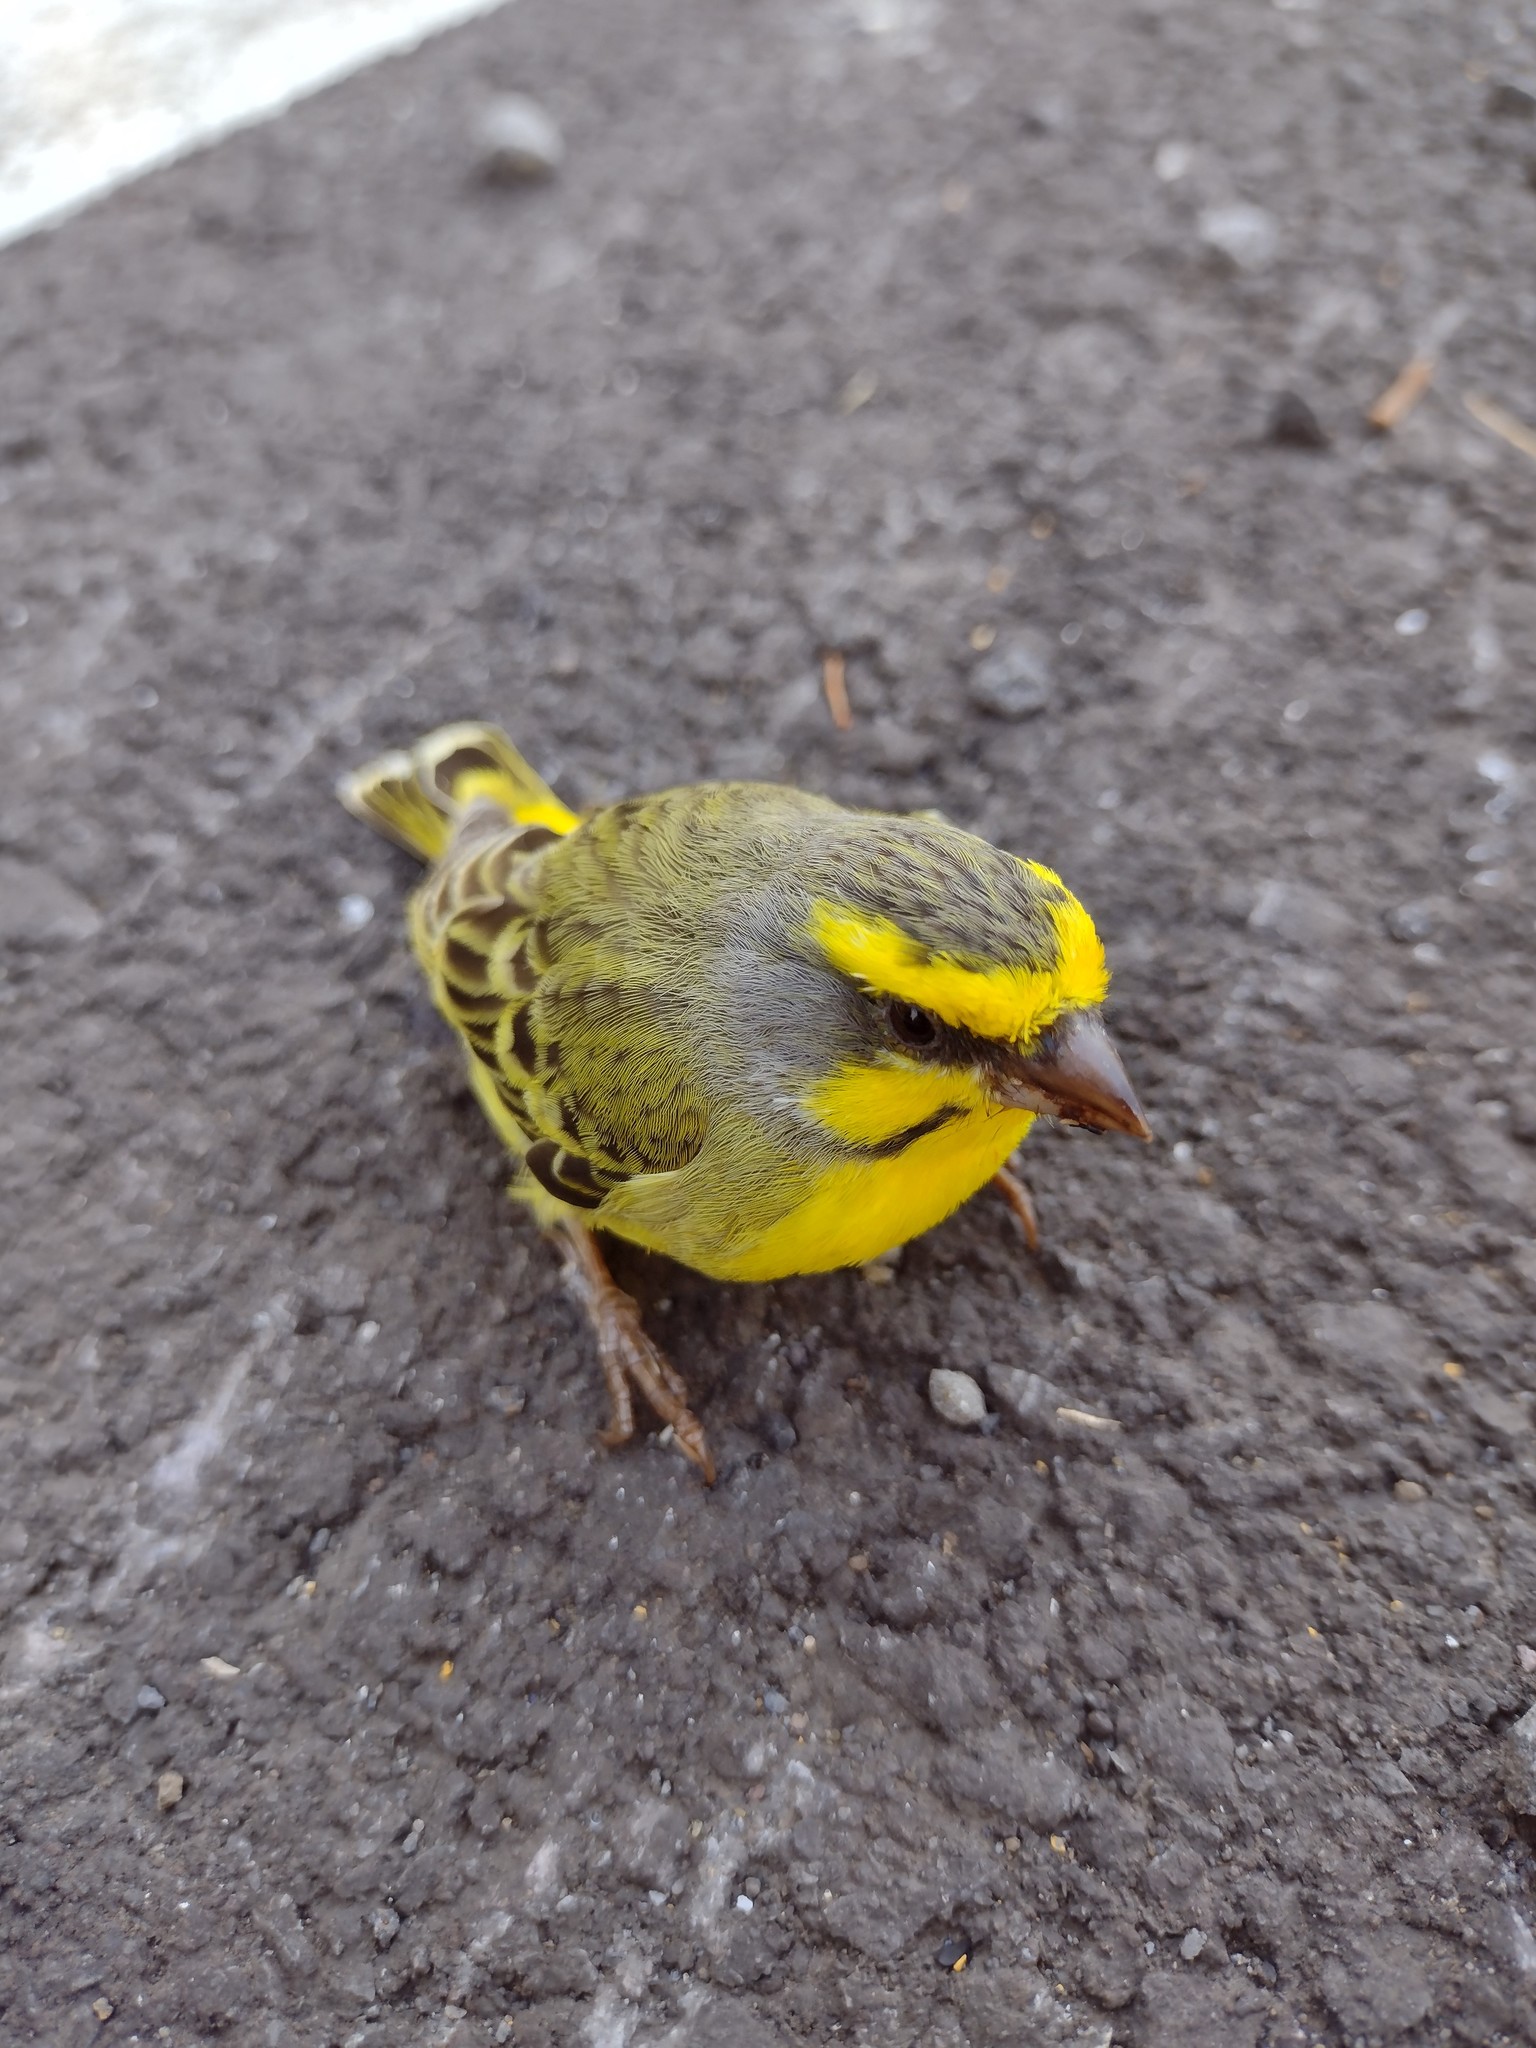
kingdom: Animalia
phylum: Chordata
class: Aves
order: Passeriformes
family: Fringillidae
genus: Crithagra
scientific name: Crithagra mozambica
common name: Yellow-fronted canary
